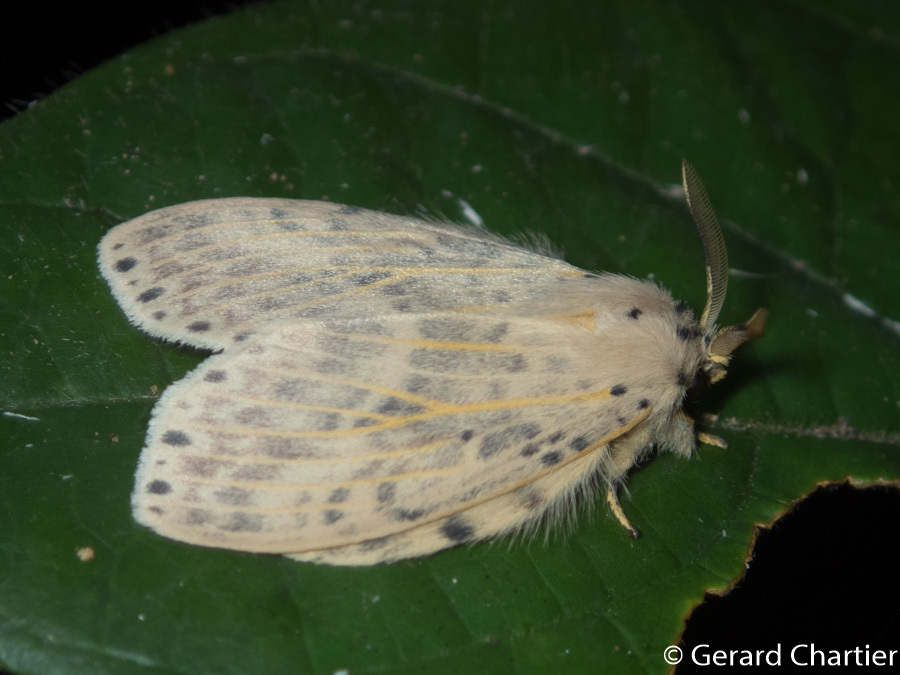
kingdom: Animalia
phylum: Arthropoda
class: Insecta
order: Lepidoptera
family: Notodontidae
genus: Cerasana
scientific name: Cerasana
